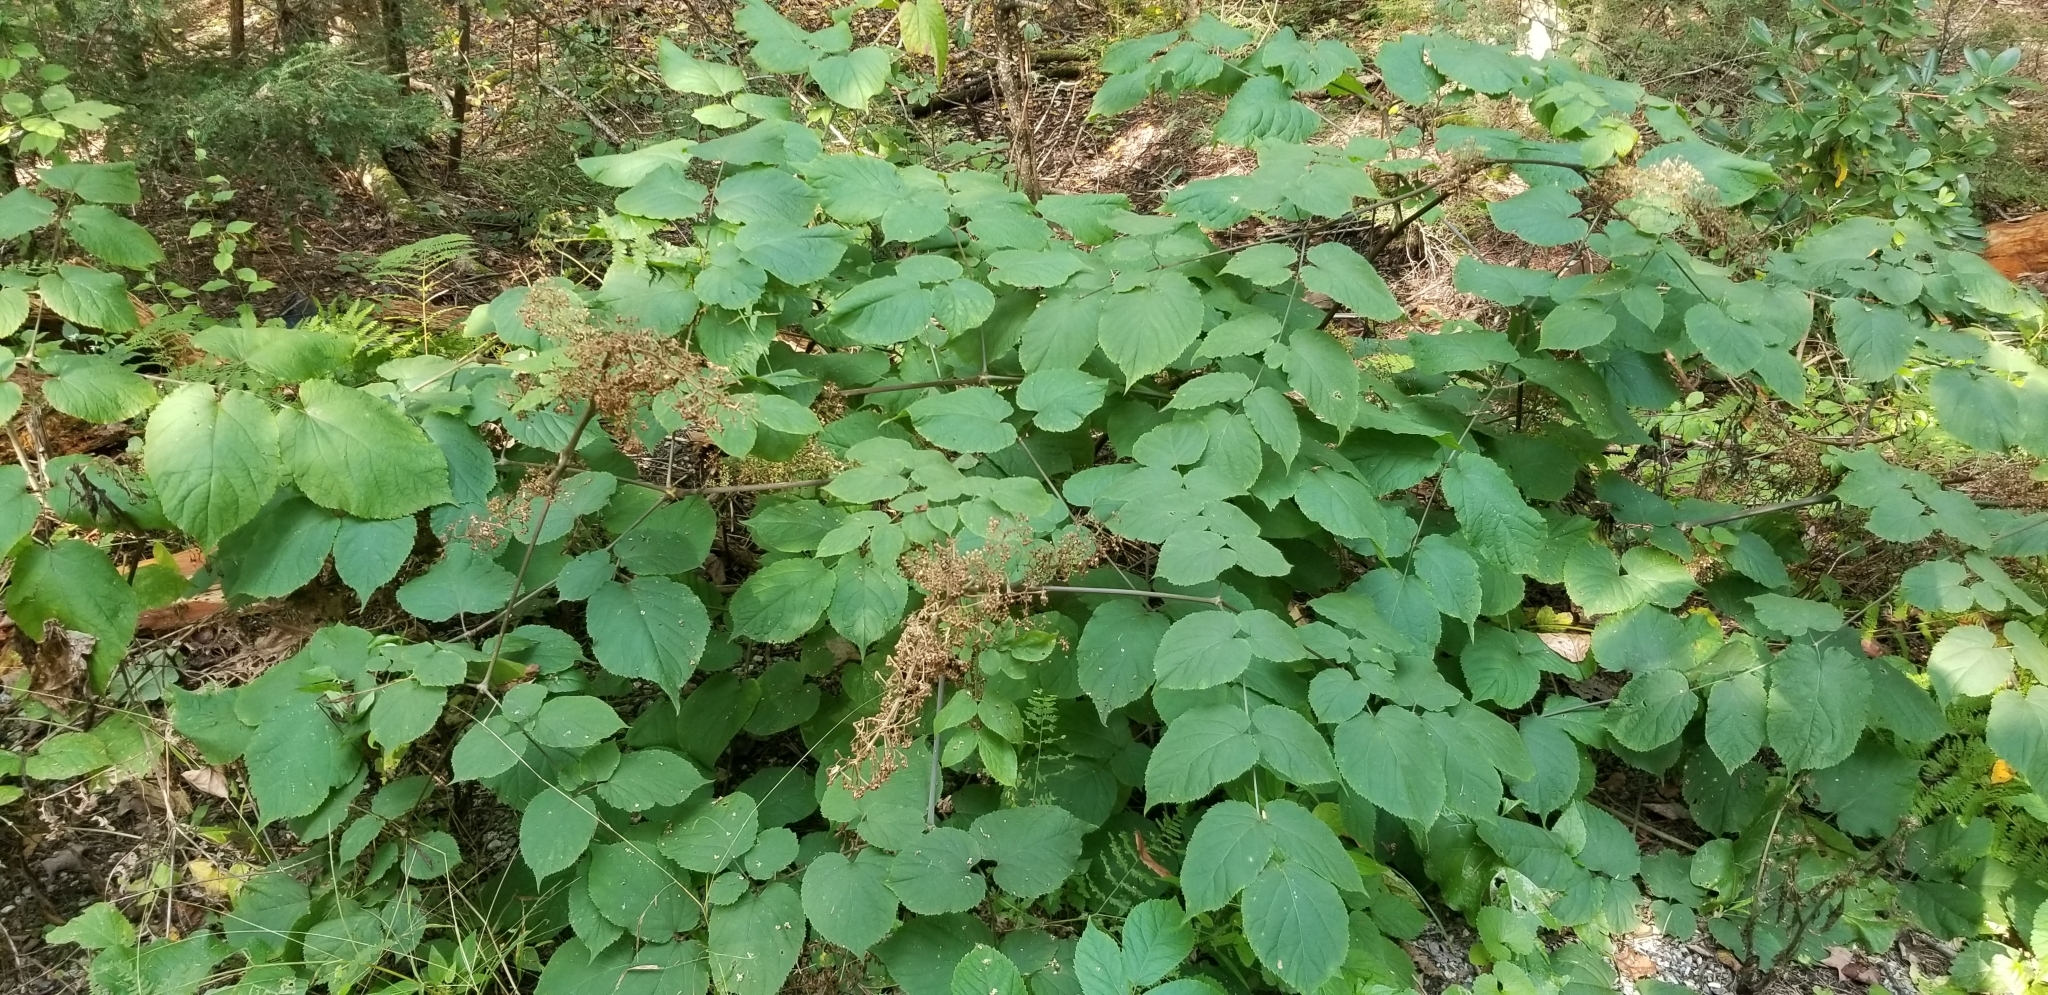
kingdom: Plantae
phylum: Tracheophyta
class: Magnoliopsida
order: Apiales
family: Araliaceae
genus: Aralia
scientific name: Aralia racemosa
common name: American-spikenard
